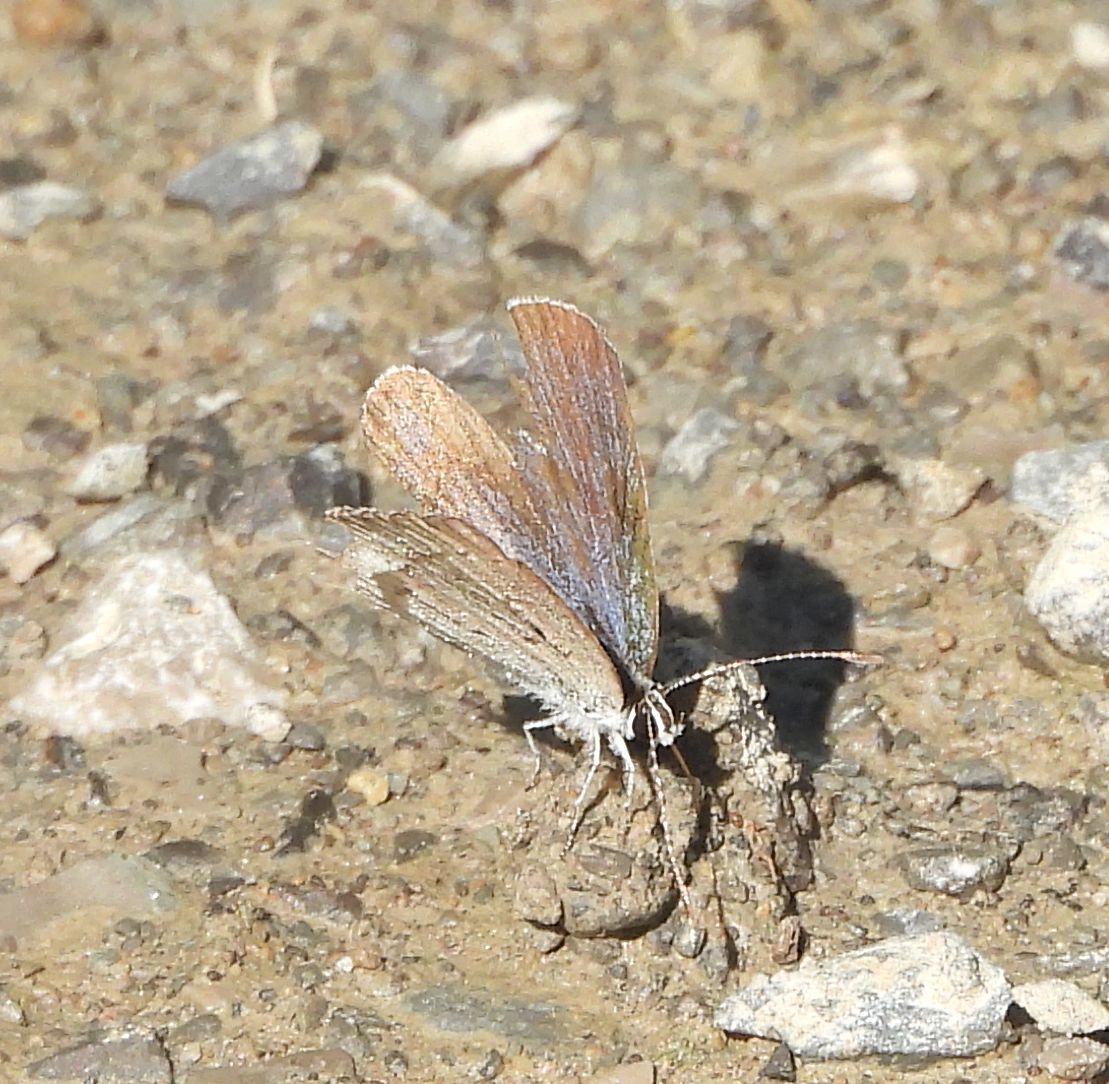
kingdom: Animalia
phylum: Arthropoda
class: Insecta
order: Lepidoptera
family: Lycaenidae
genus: Elkalyce
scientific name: Elkalyce comyntas
